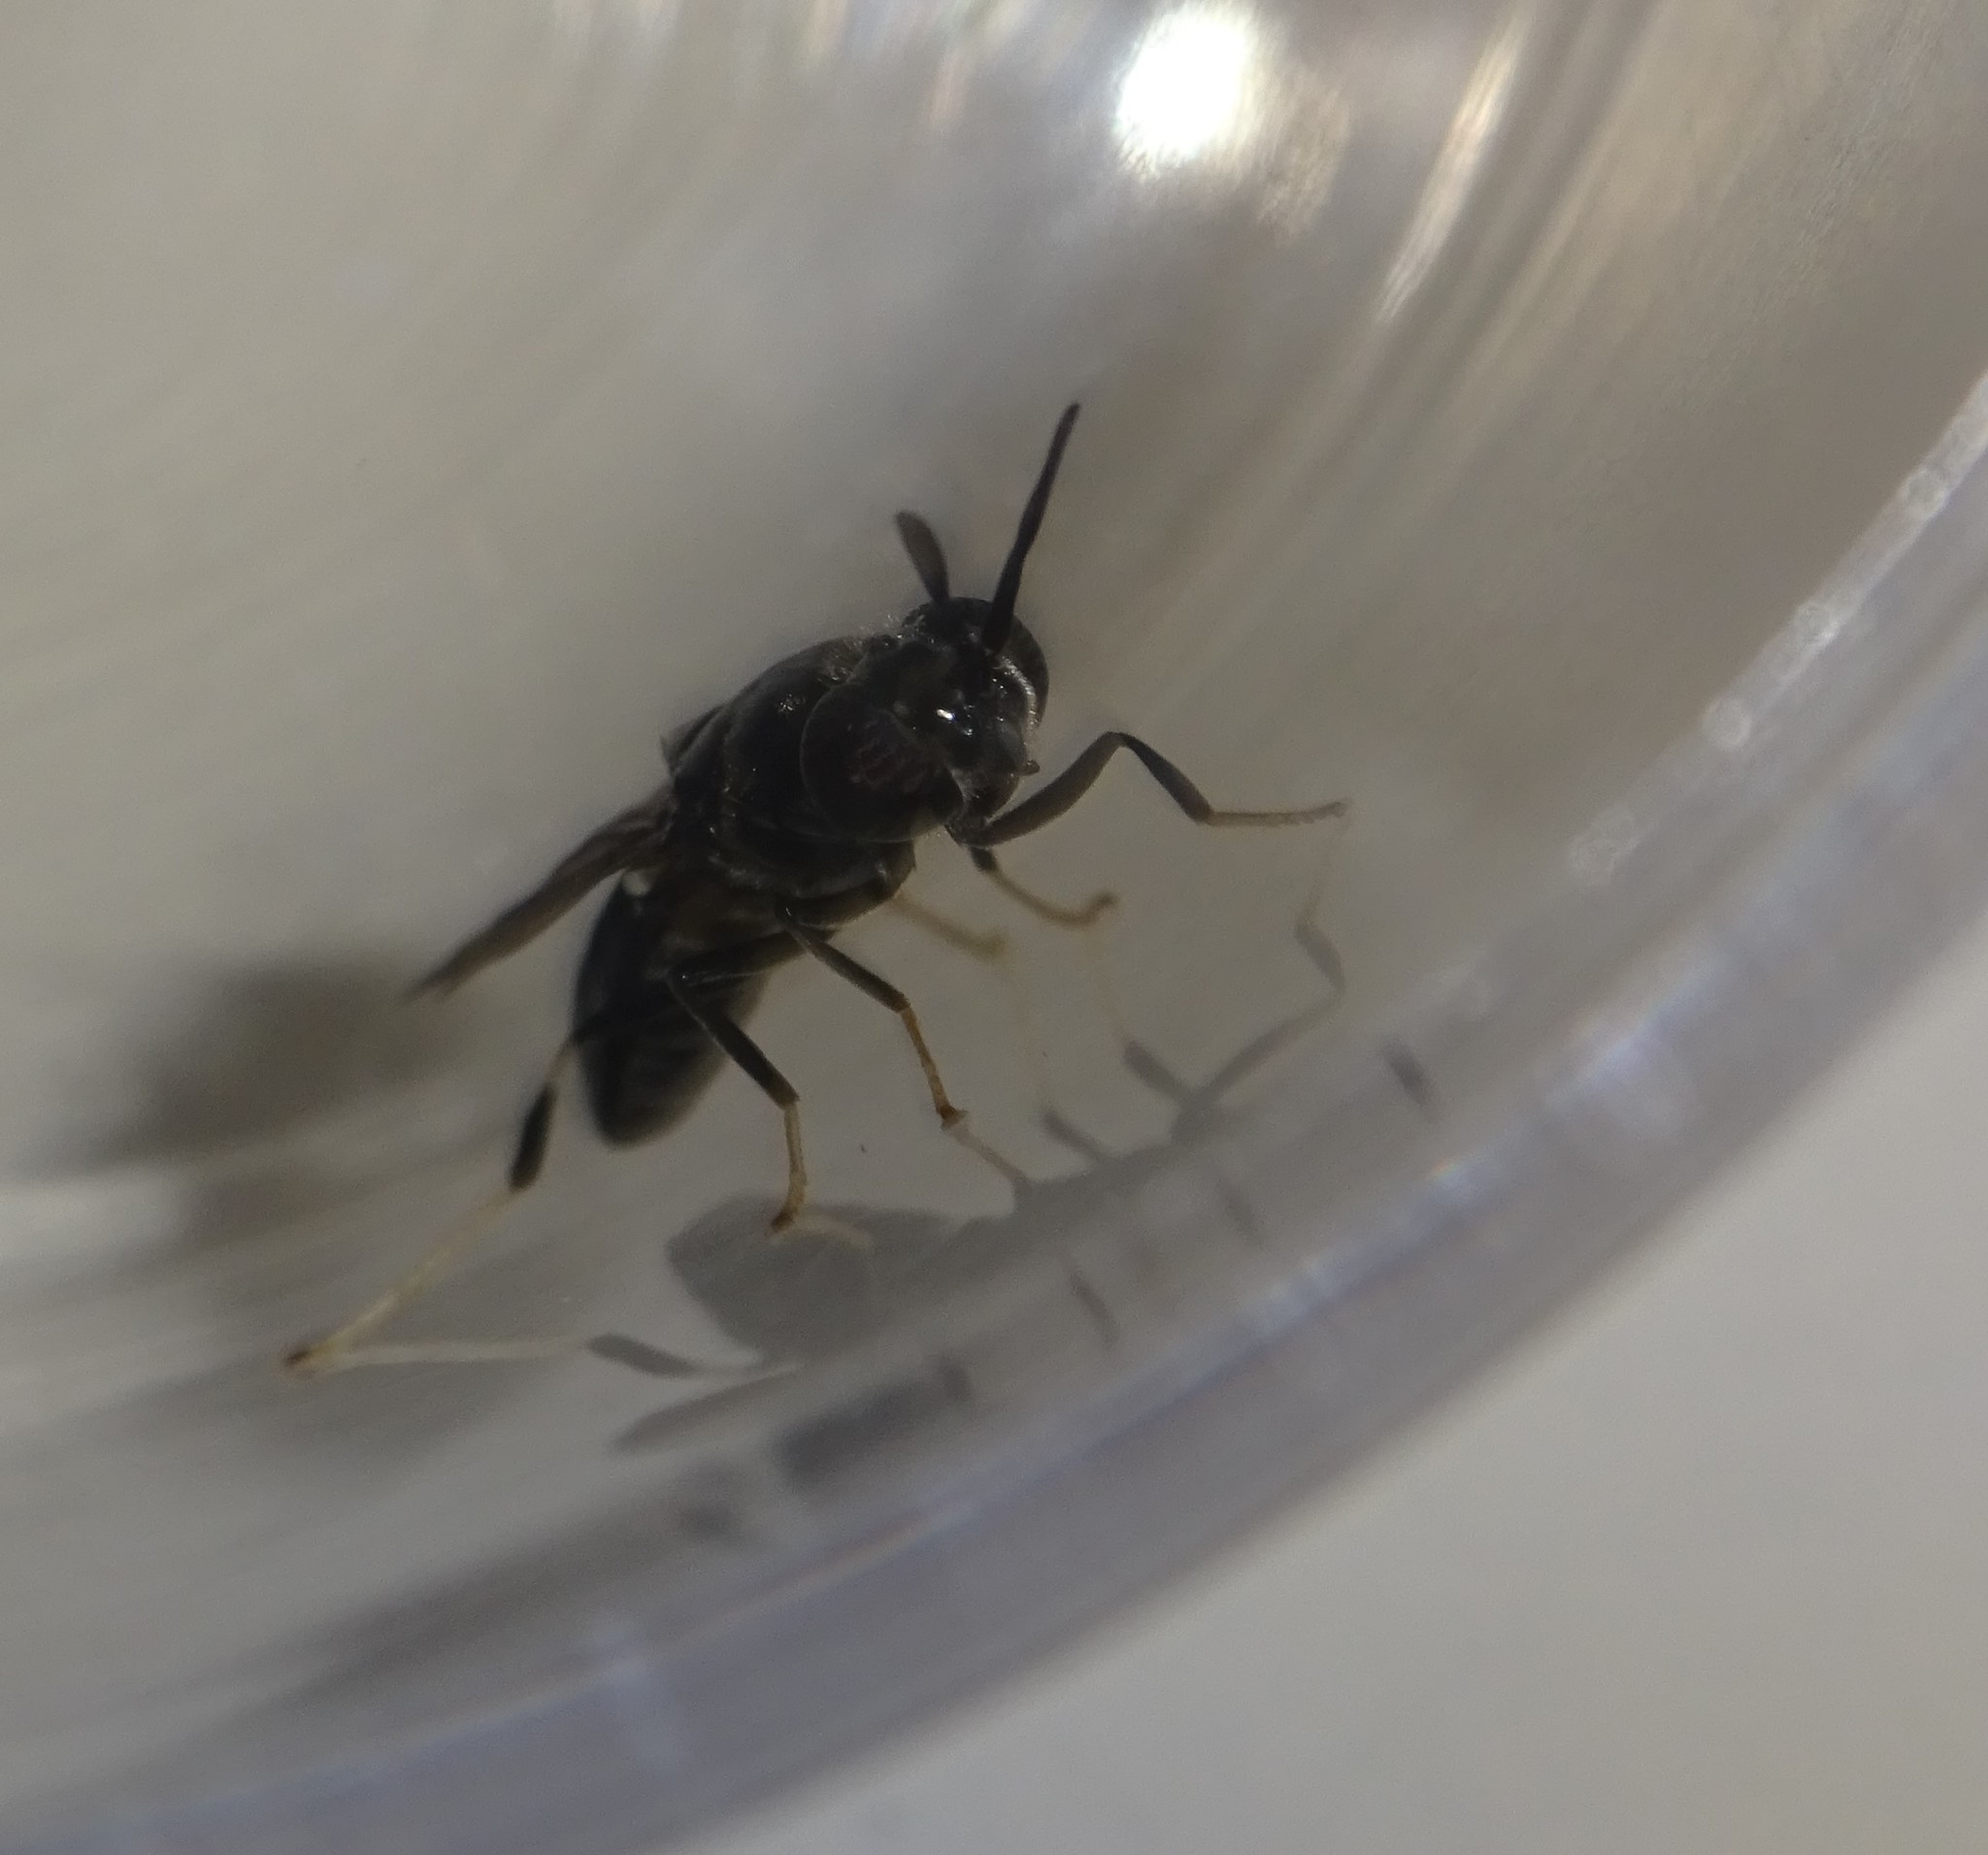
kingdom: Animalia
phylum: Arthropoda
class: Insecta
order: Diptera
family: Stratiomyidae
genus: Hermetia
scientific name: Hermetia illucens
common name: Black soldier fly
